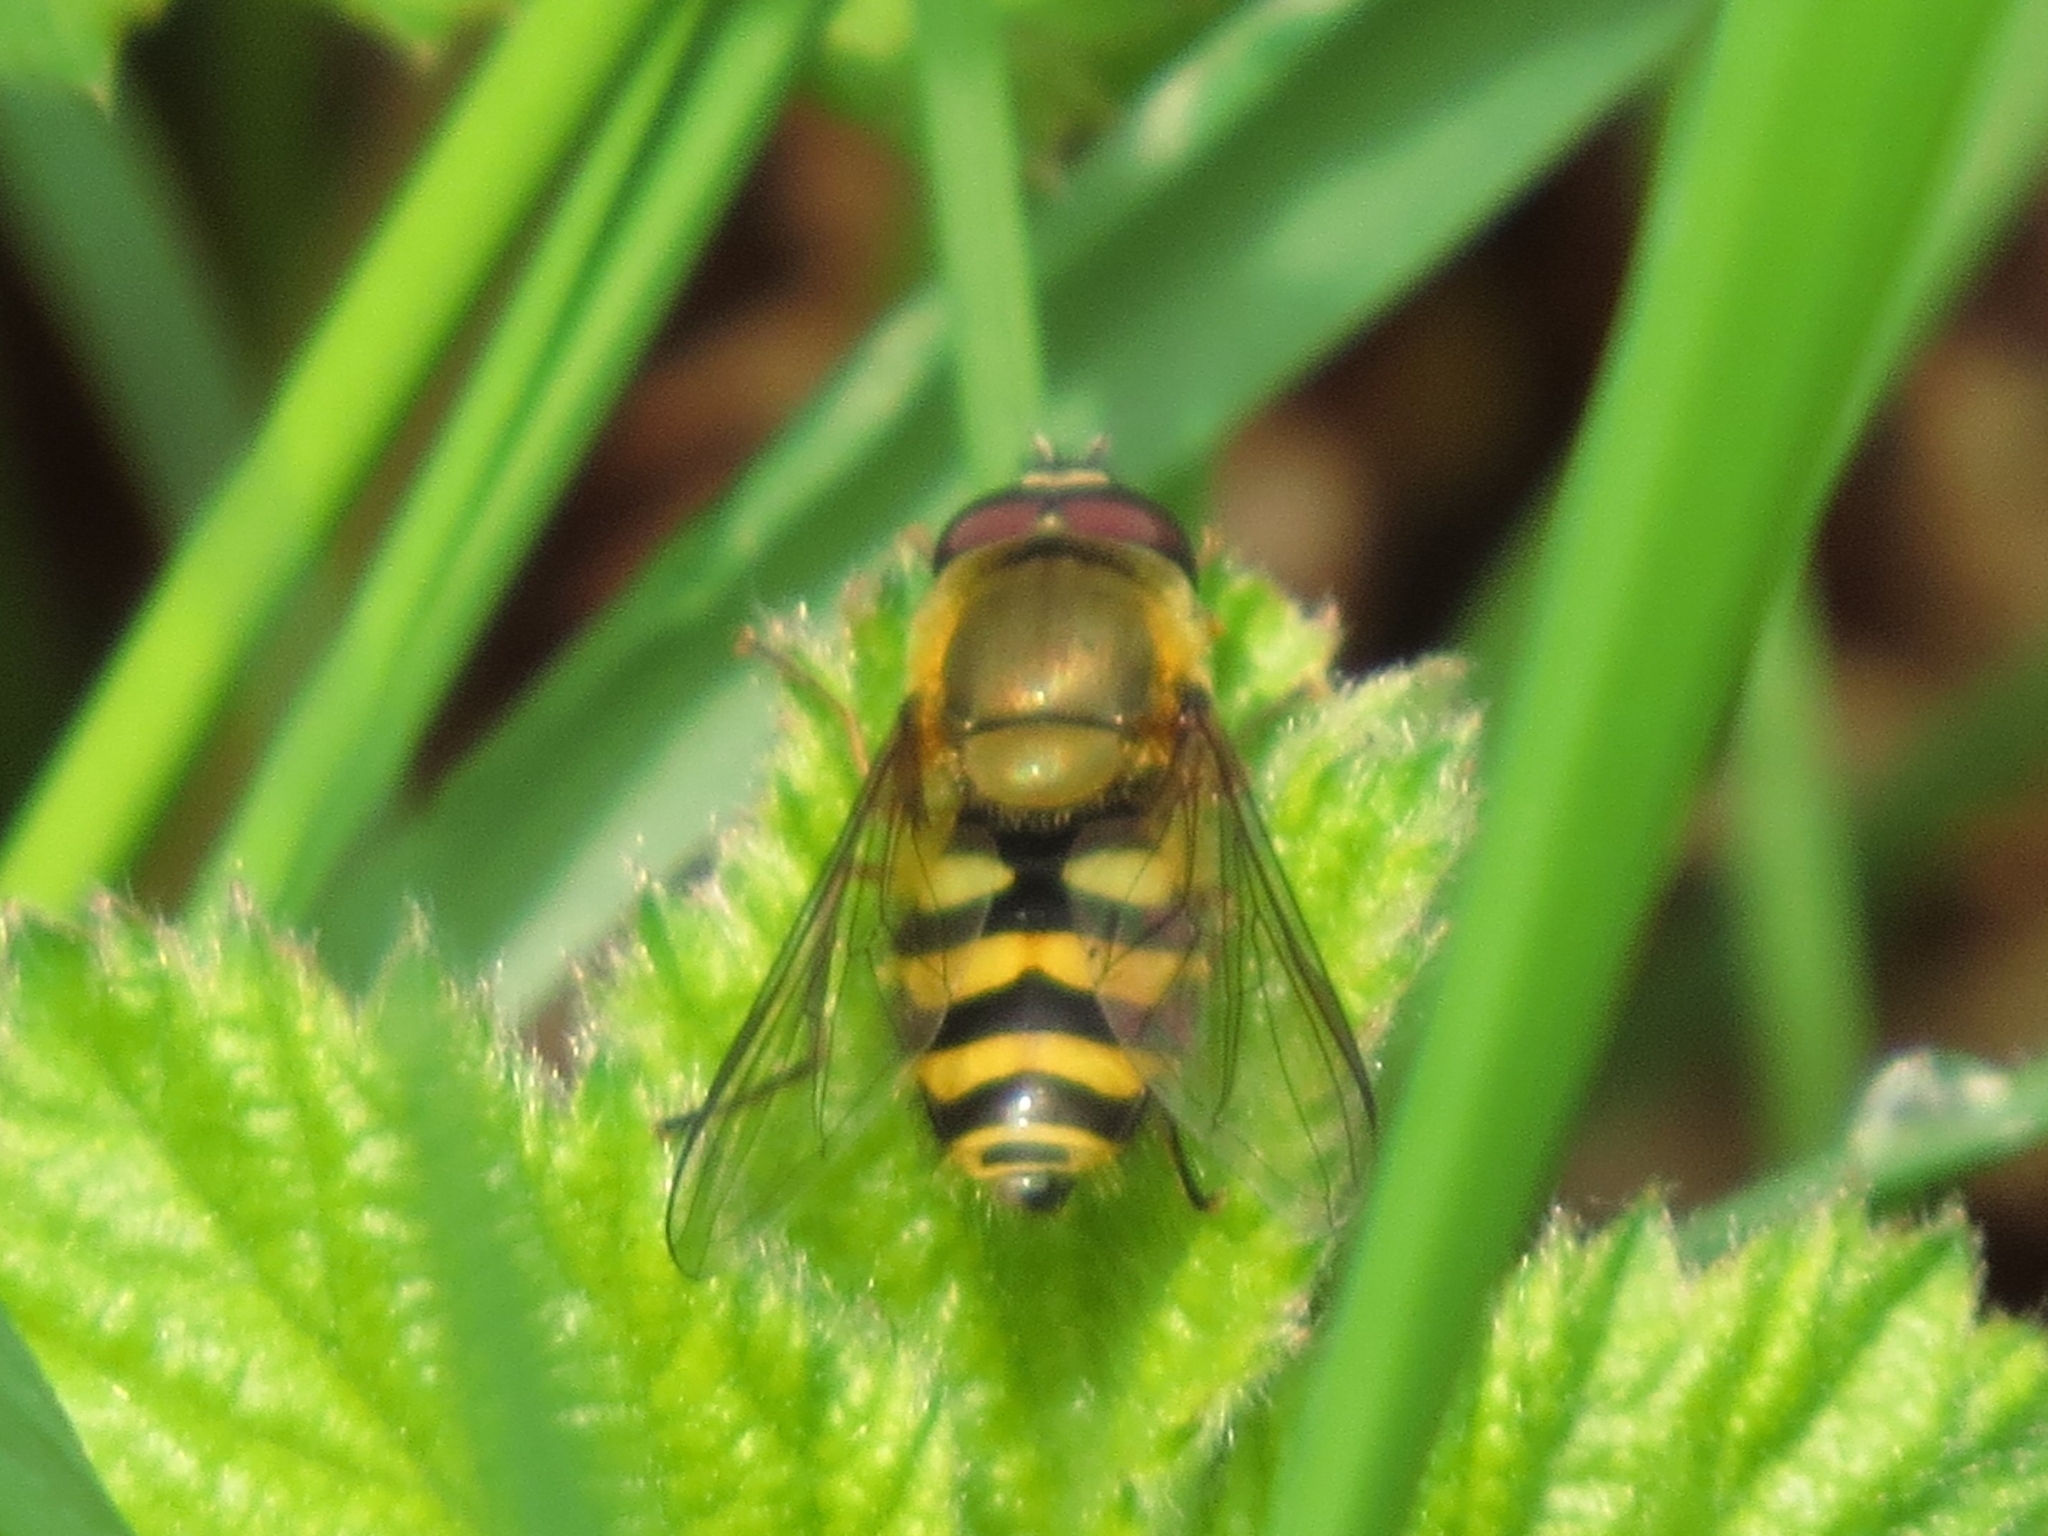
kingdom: Animalia
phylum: Arthropoda
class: Insecta
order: Diptera
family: Syrphidae
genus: Syrphus
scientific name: Syrphus
